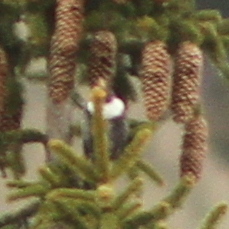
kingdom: Animalia
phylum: Chordata
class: Aves
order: Passeriformes
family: Turdidae
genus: Turdus
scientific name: Turdus torquatus
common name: Ring ouzel
